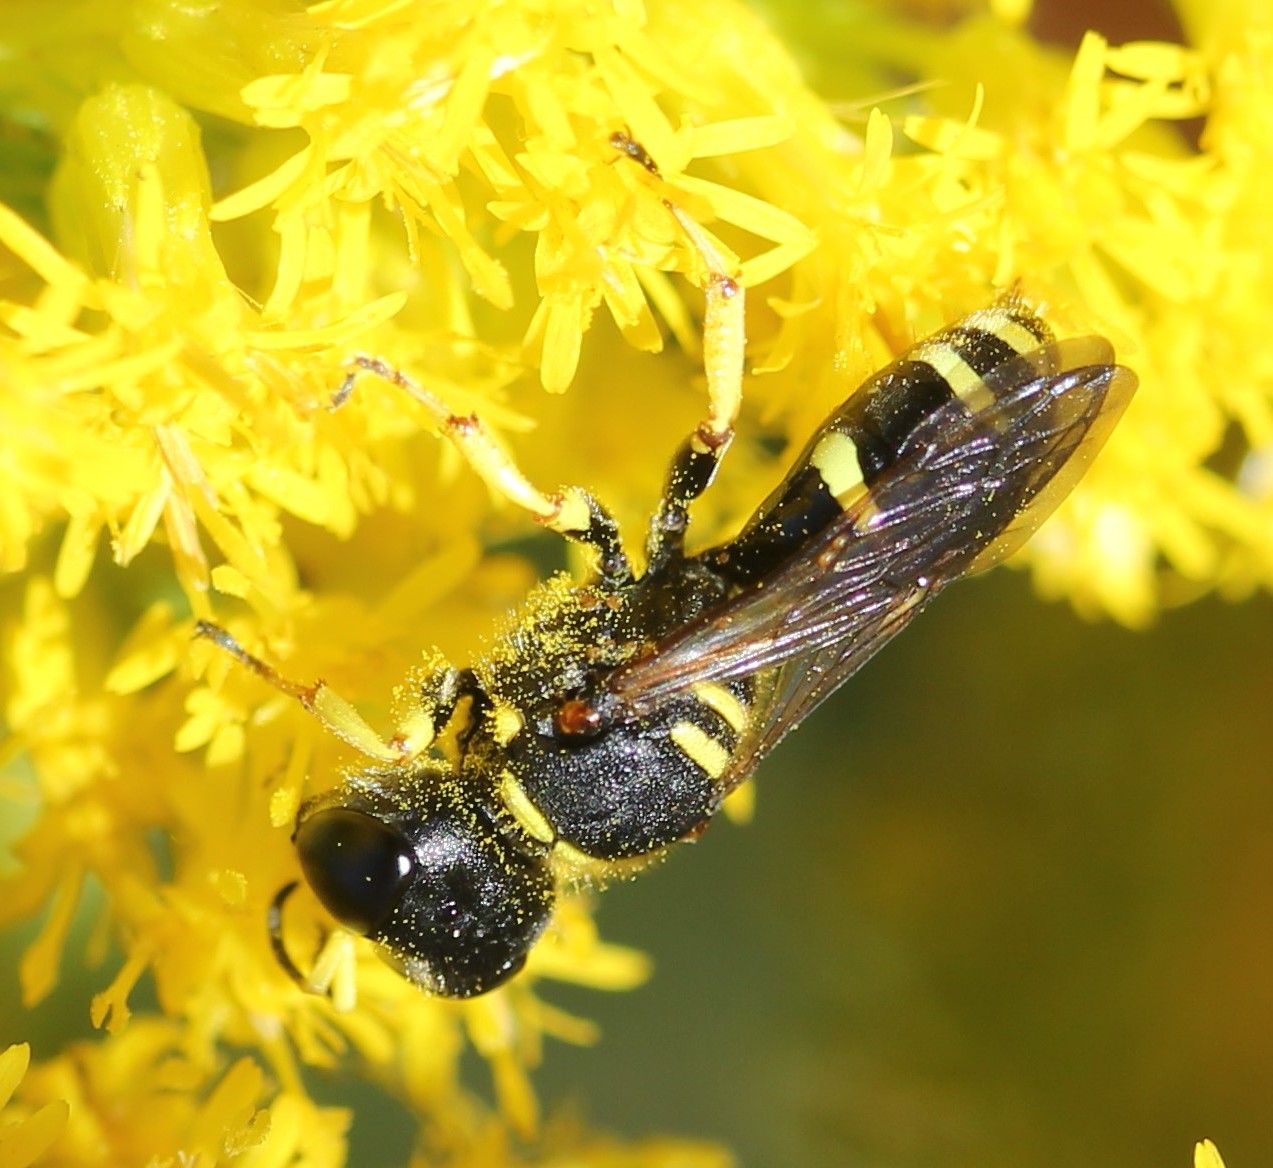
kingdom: Animalia
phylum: Arthropoda
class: Insecta
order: Hymenoptera
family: Crabronidae
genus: Ectemnius
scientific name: Ectemnius continuus
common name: Common ectemnius
